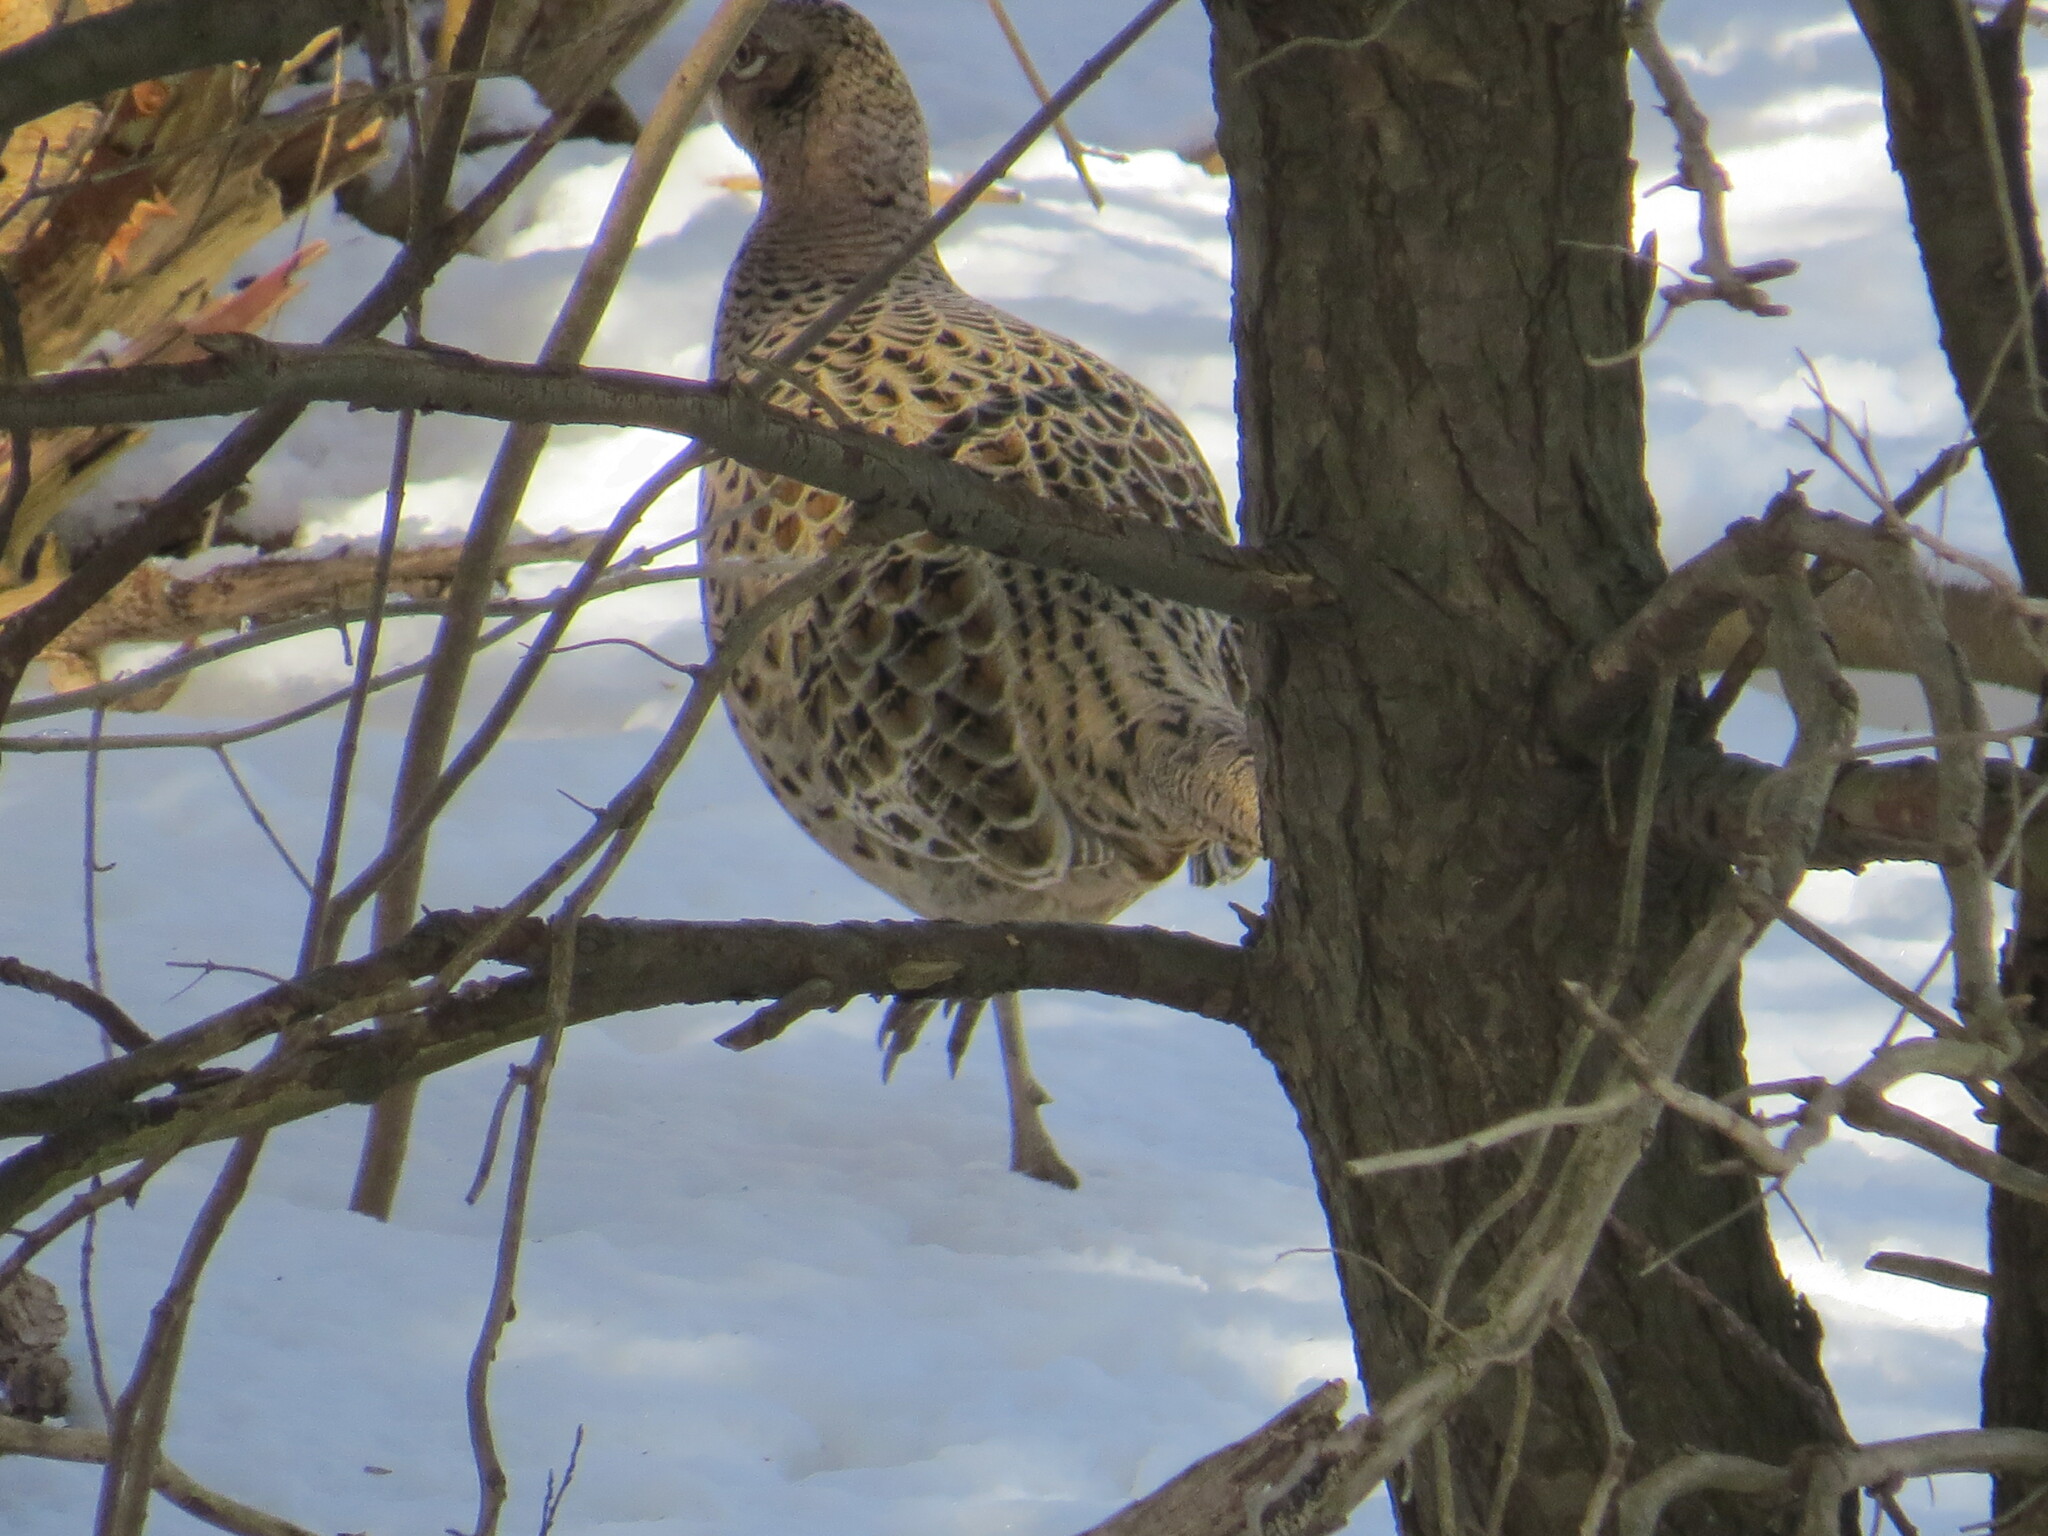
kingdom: Animalia
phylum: Chordata
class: Aves
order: Galliformes
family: Phasianidae
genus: Phasianus
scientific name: Phasianus colchicus
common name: Common pheasant
